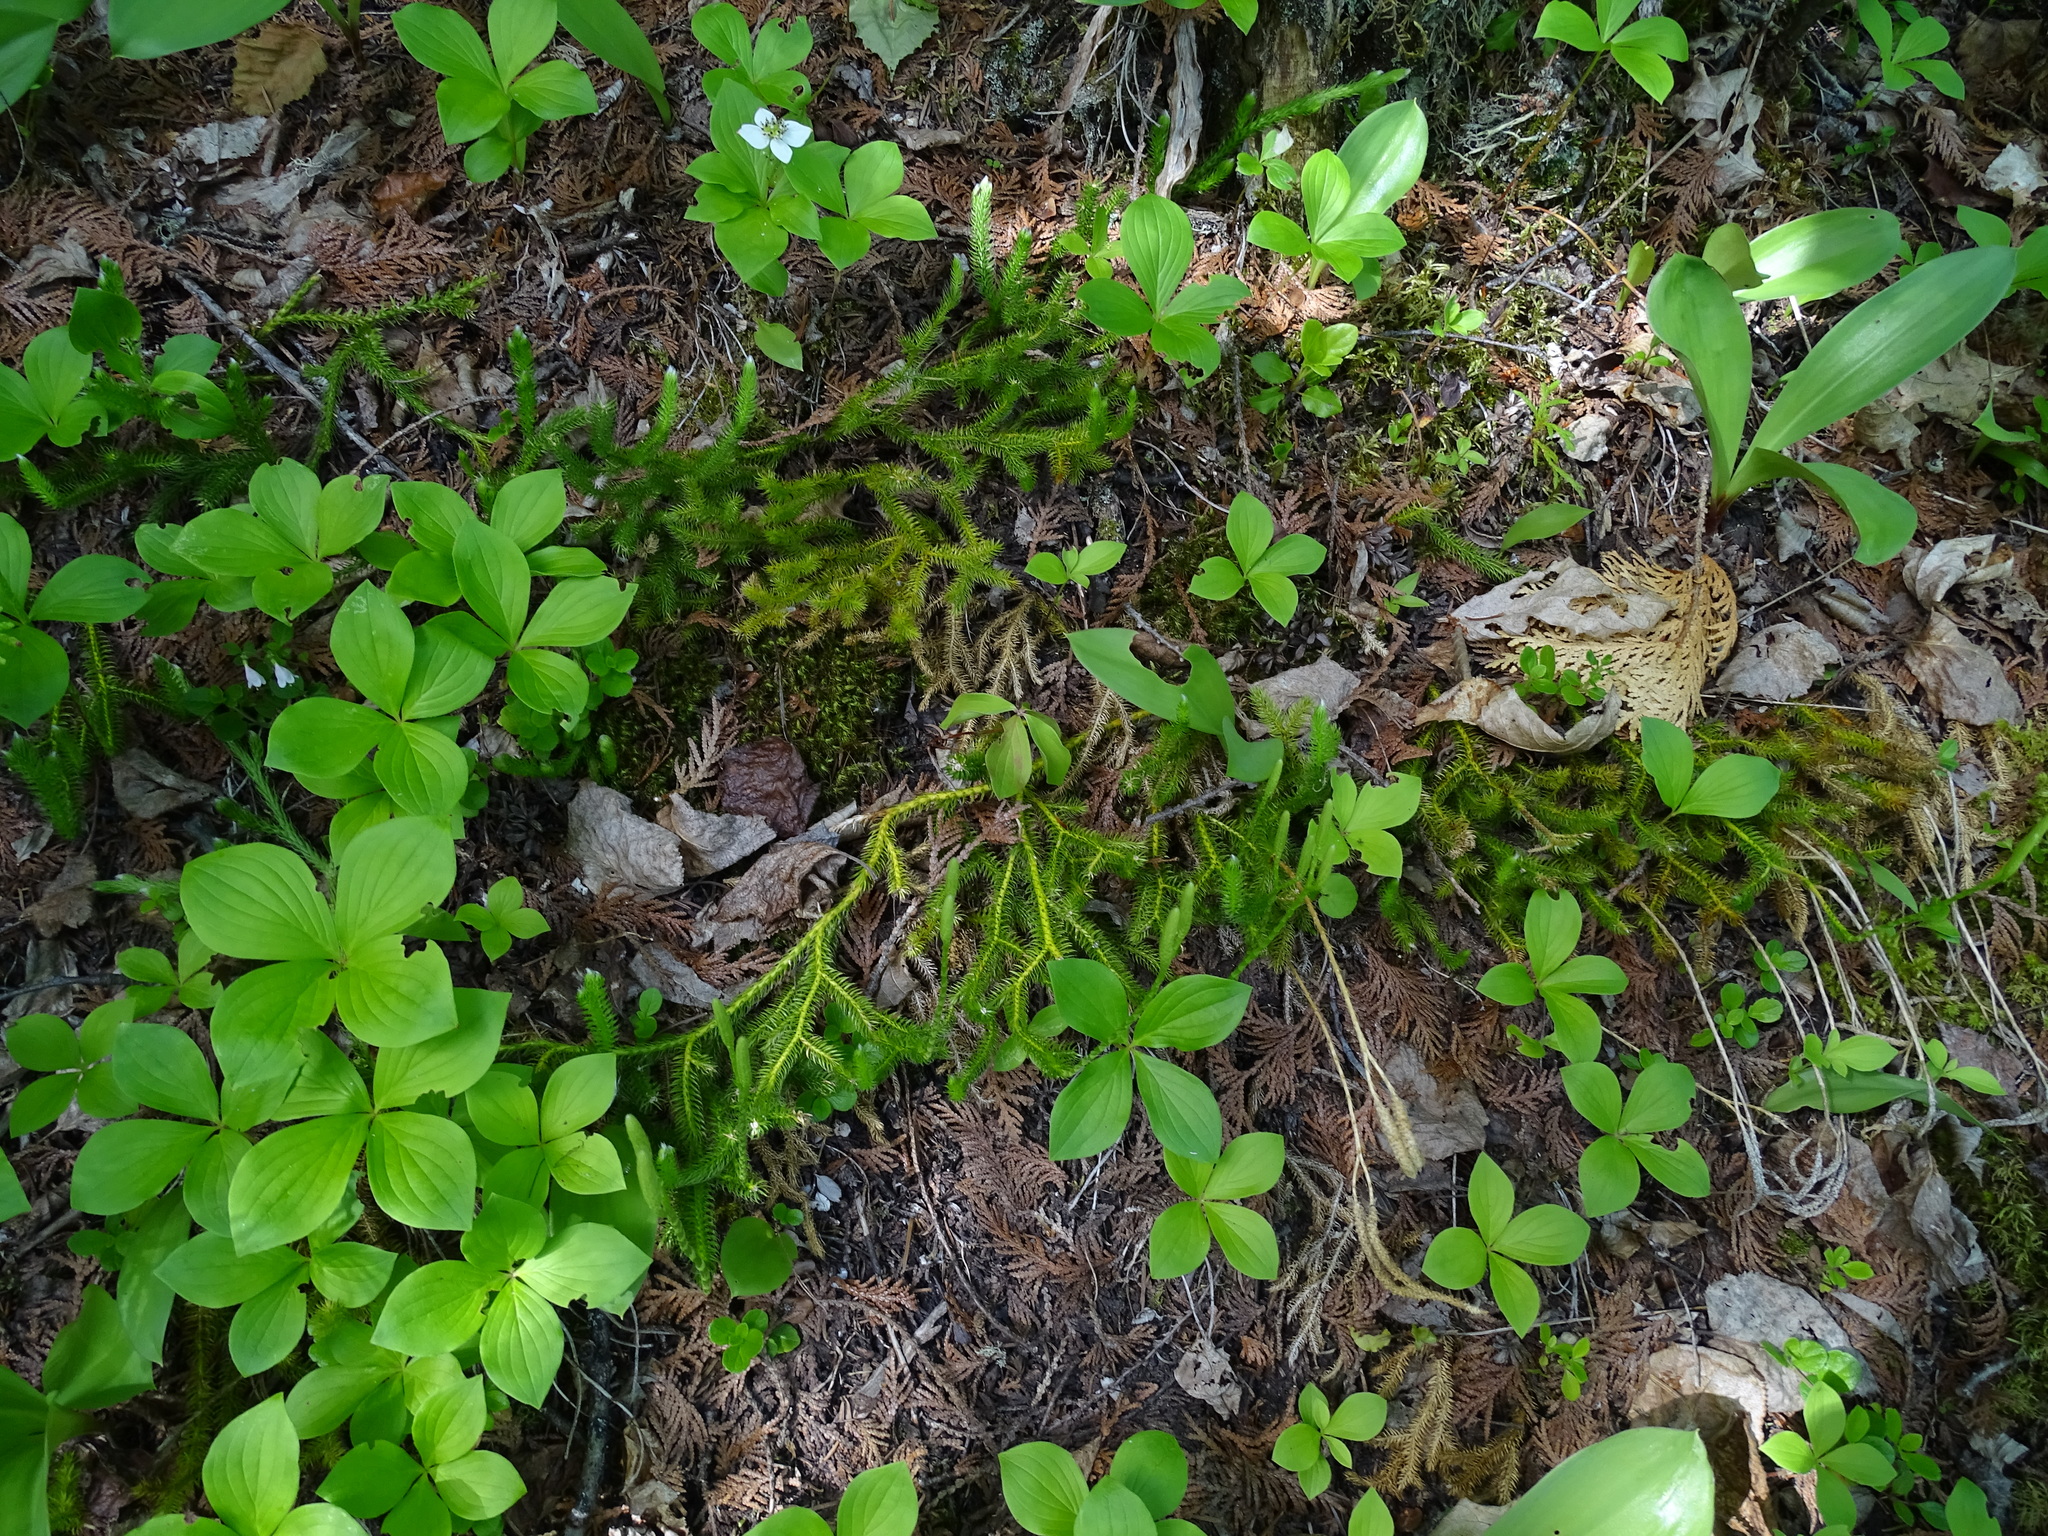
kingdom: Plantae
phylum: Tracheophyta
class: Lycopodiopsida
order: Lycopodiales
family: Lycopodiaceae
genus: Lycopodium
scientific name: Lycopodium clavatum
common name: Stag's-horn clubmoss
